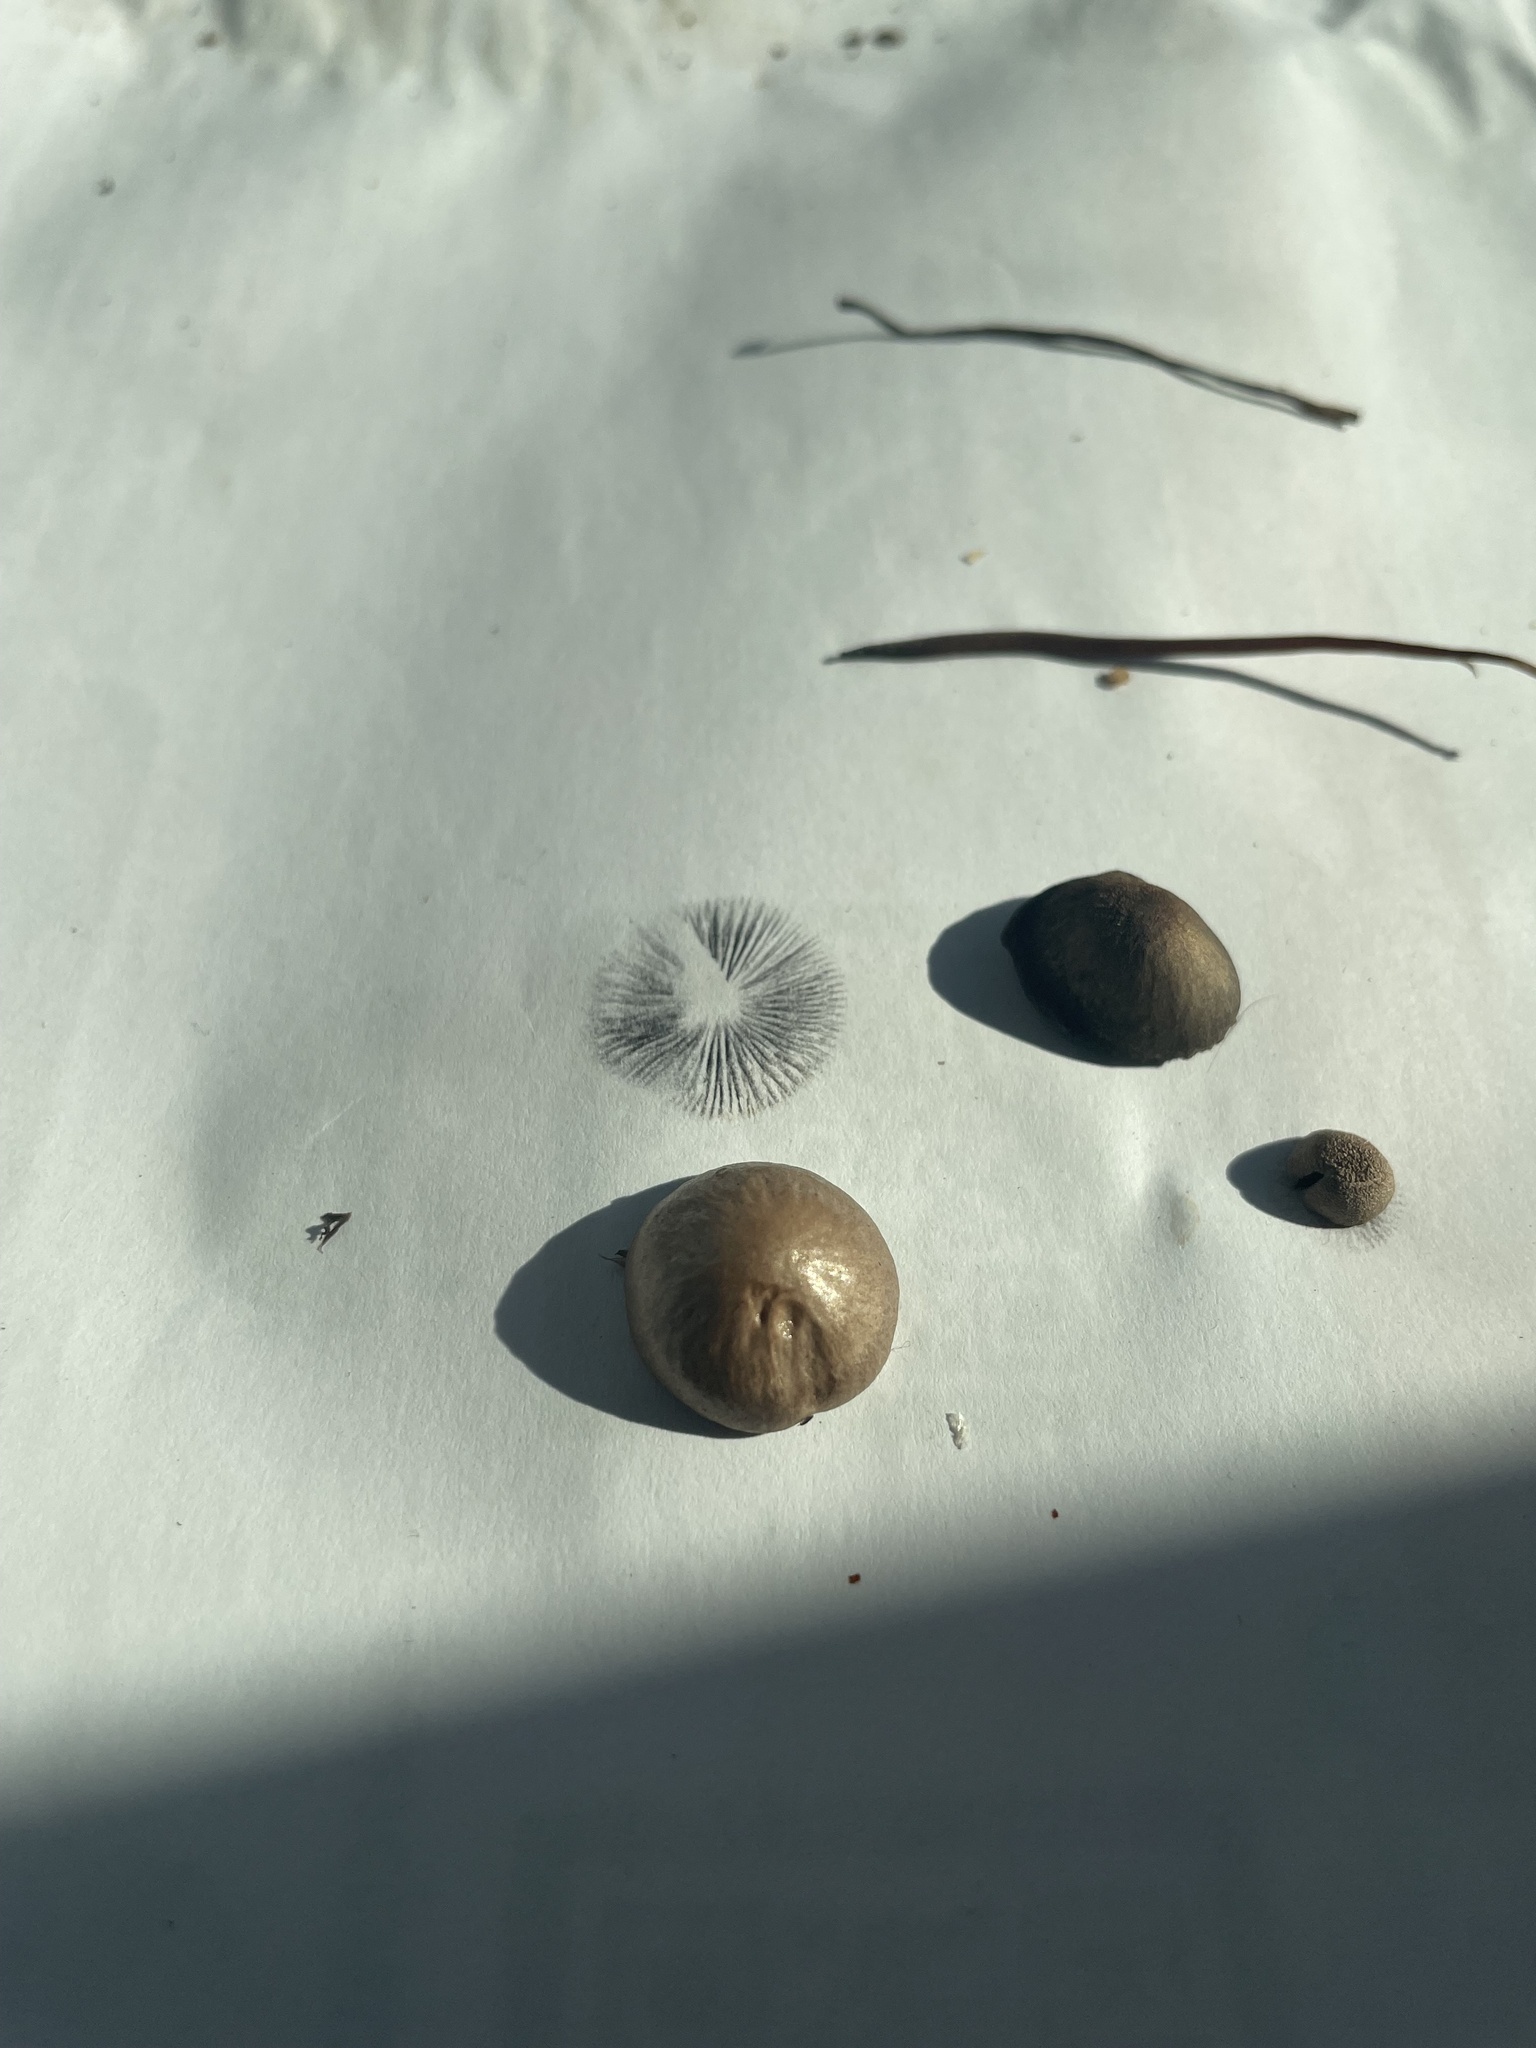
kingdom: Fungi
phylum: Basidiomycota
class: Agaricomycetes
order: Agaricales
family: Bolbitiaceae
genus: Panaeolus
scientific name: Panaeolus subbalteatus
